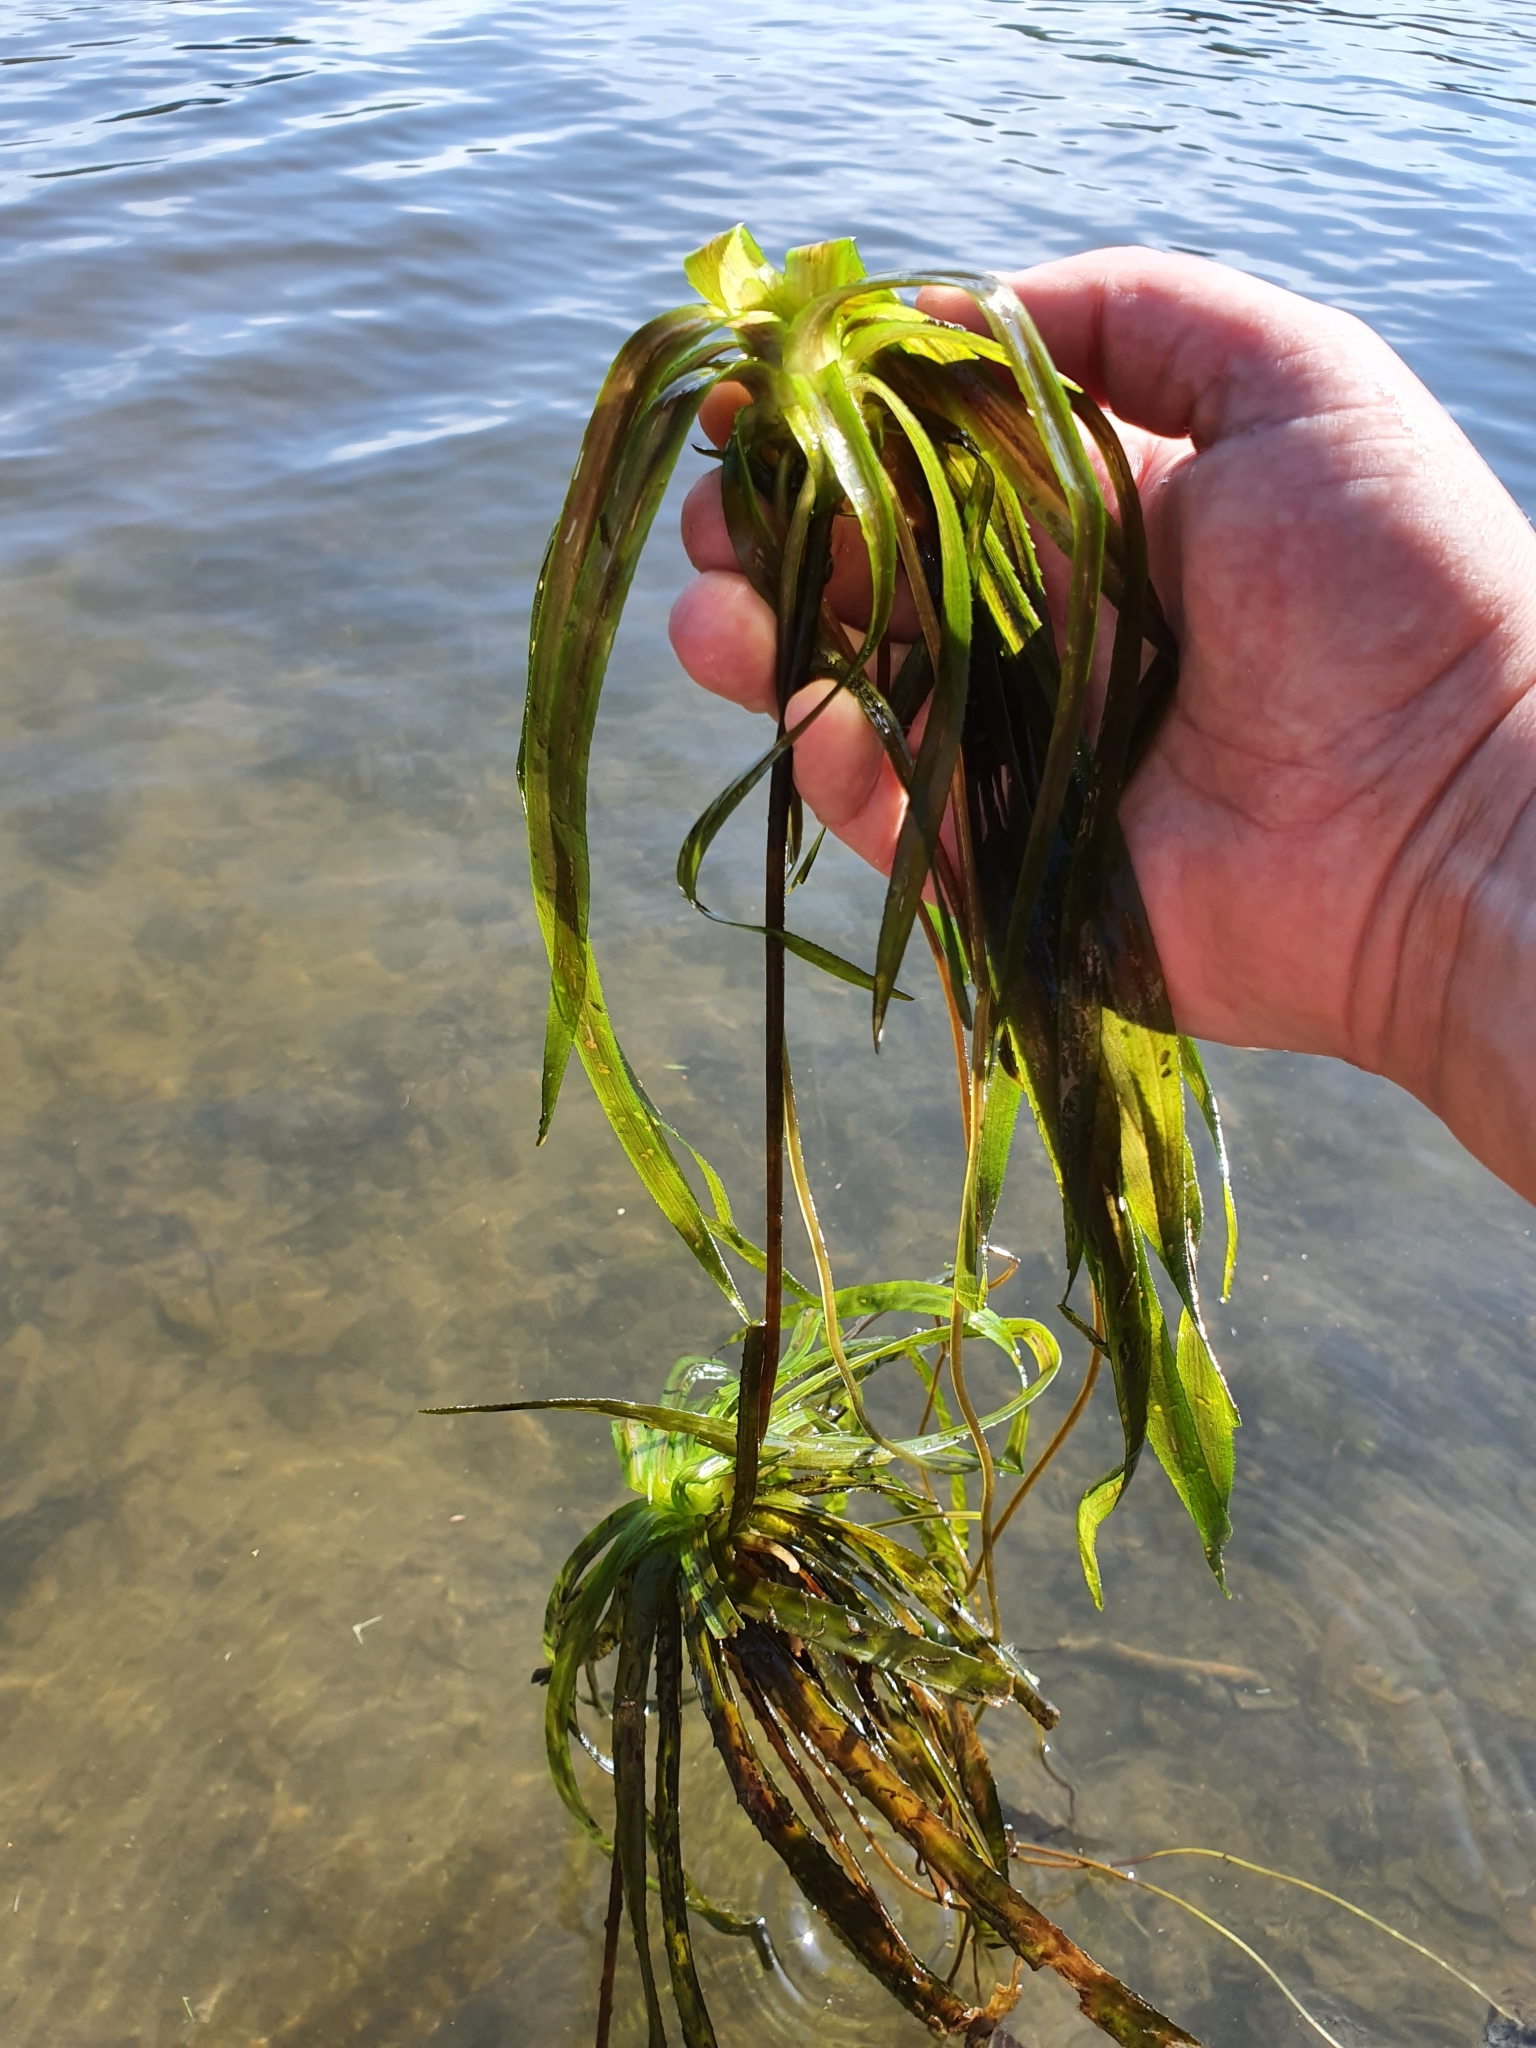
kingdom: Plantae
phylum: Tracheophyta
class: Liliopsida
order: Alismatales
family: Hydrocharitaceae
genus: Stratiotes
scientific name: Stratiotes aloides
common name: Water-soldier
